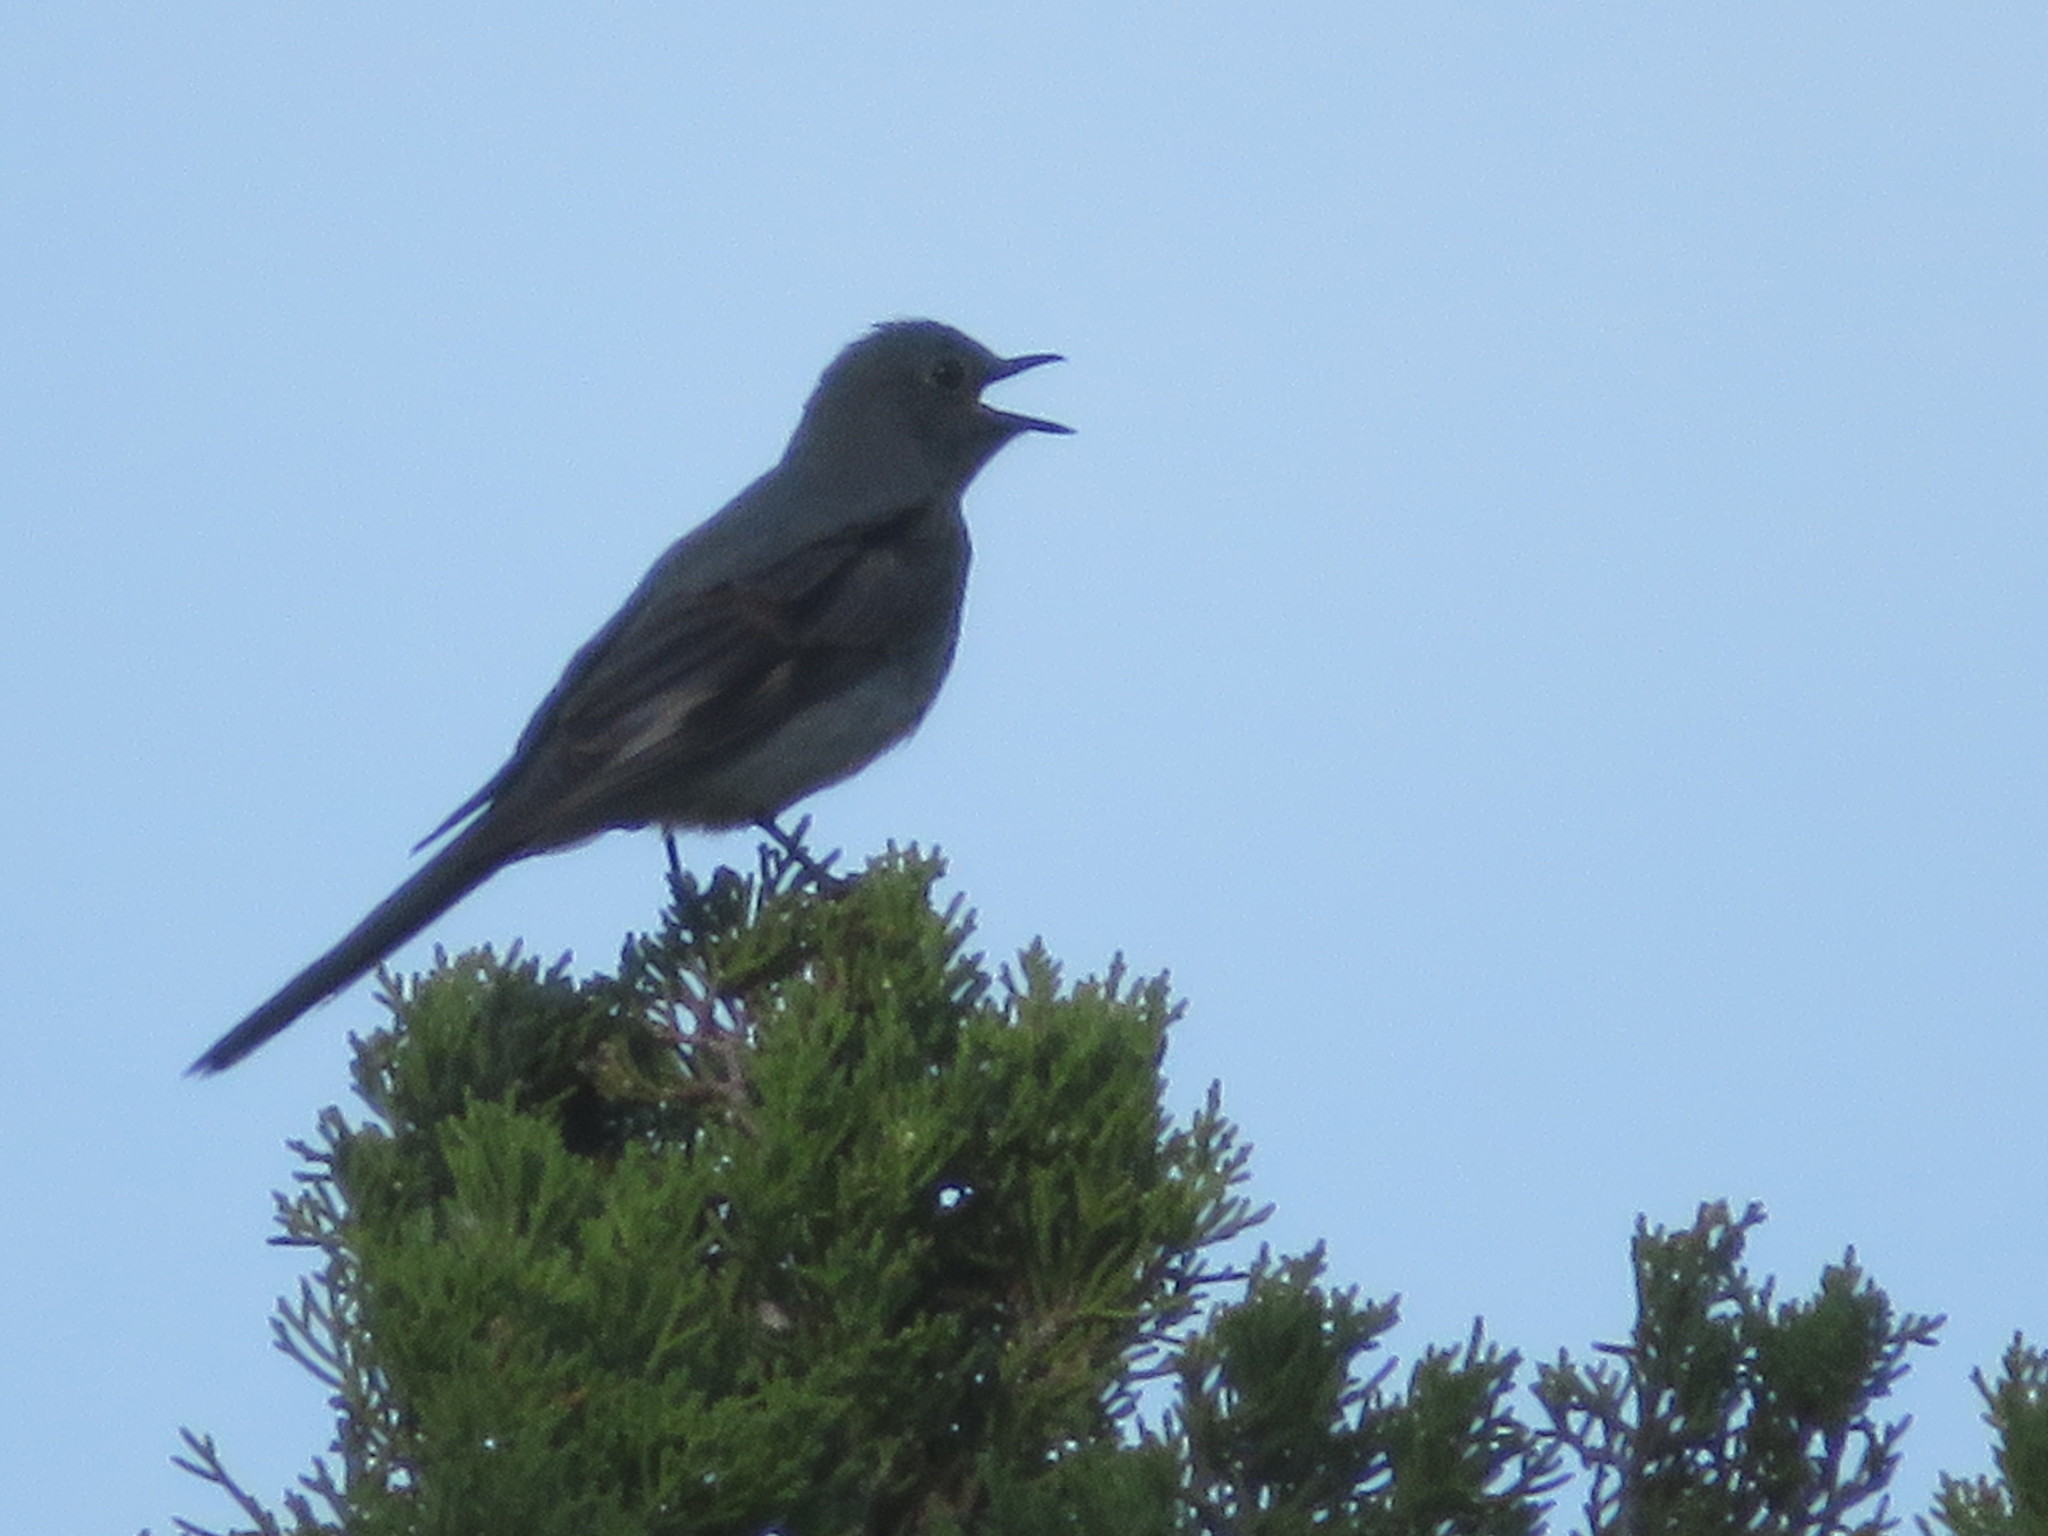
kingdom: Animalia
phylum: Chordata
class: Aves
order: Passeriformes
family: Turdidae
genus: Myadestes
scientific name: Myadestes townsendi
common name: Townsend's solitaire
